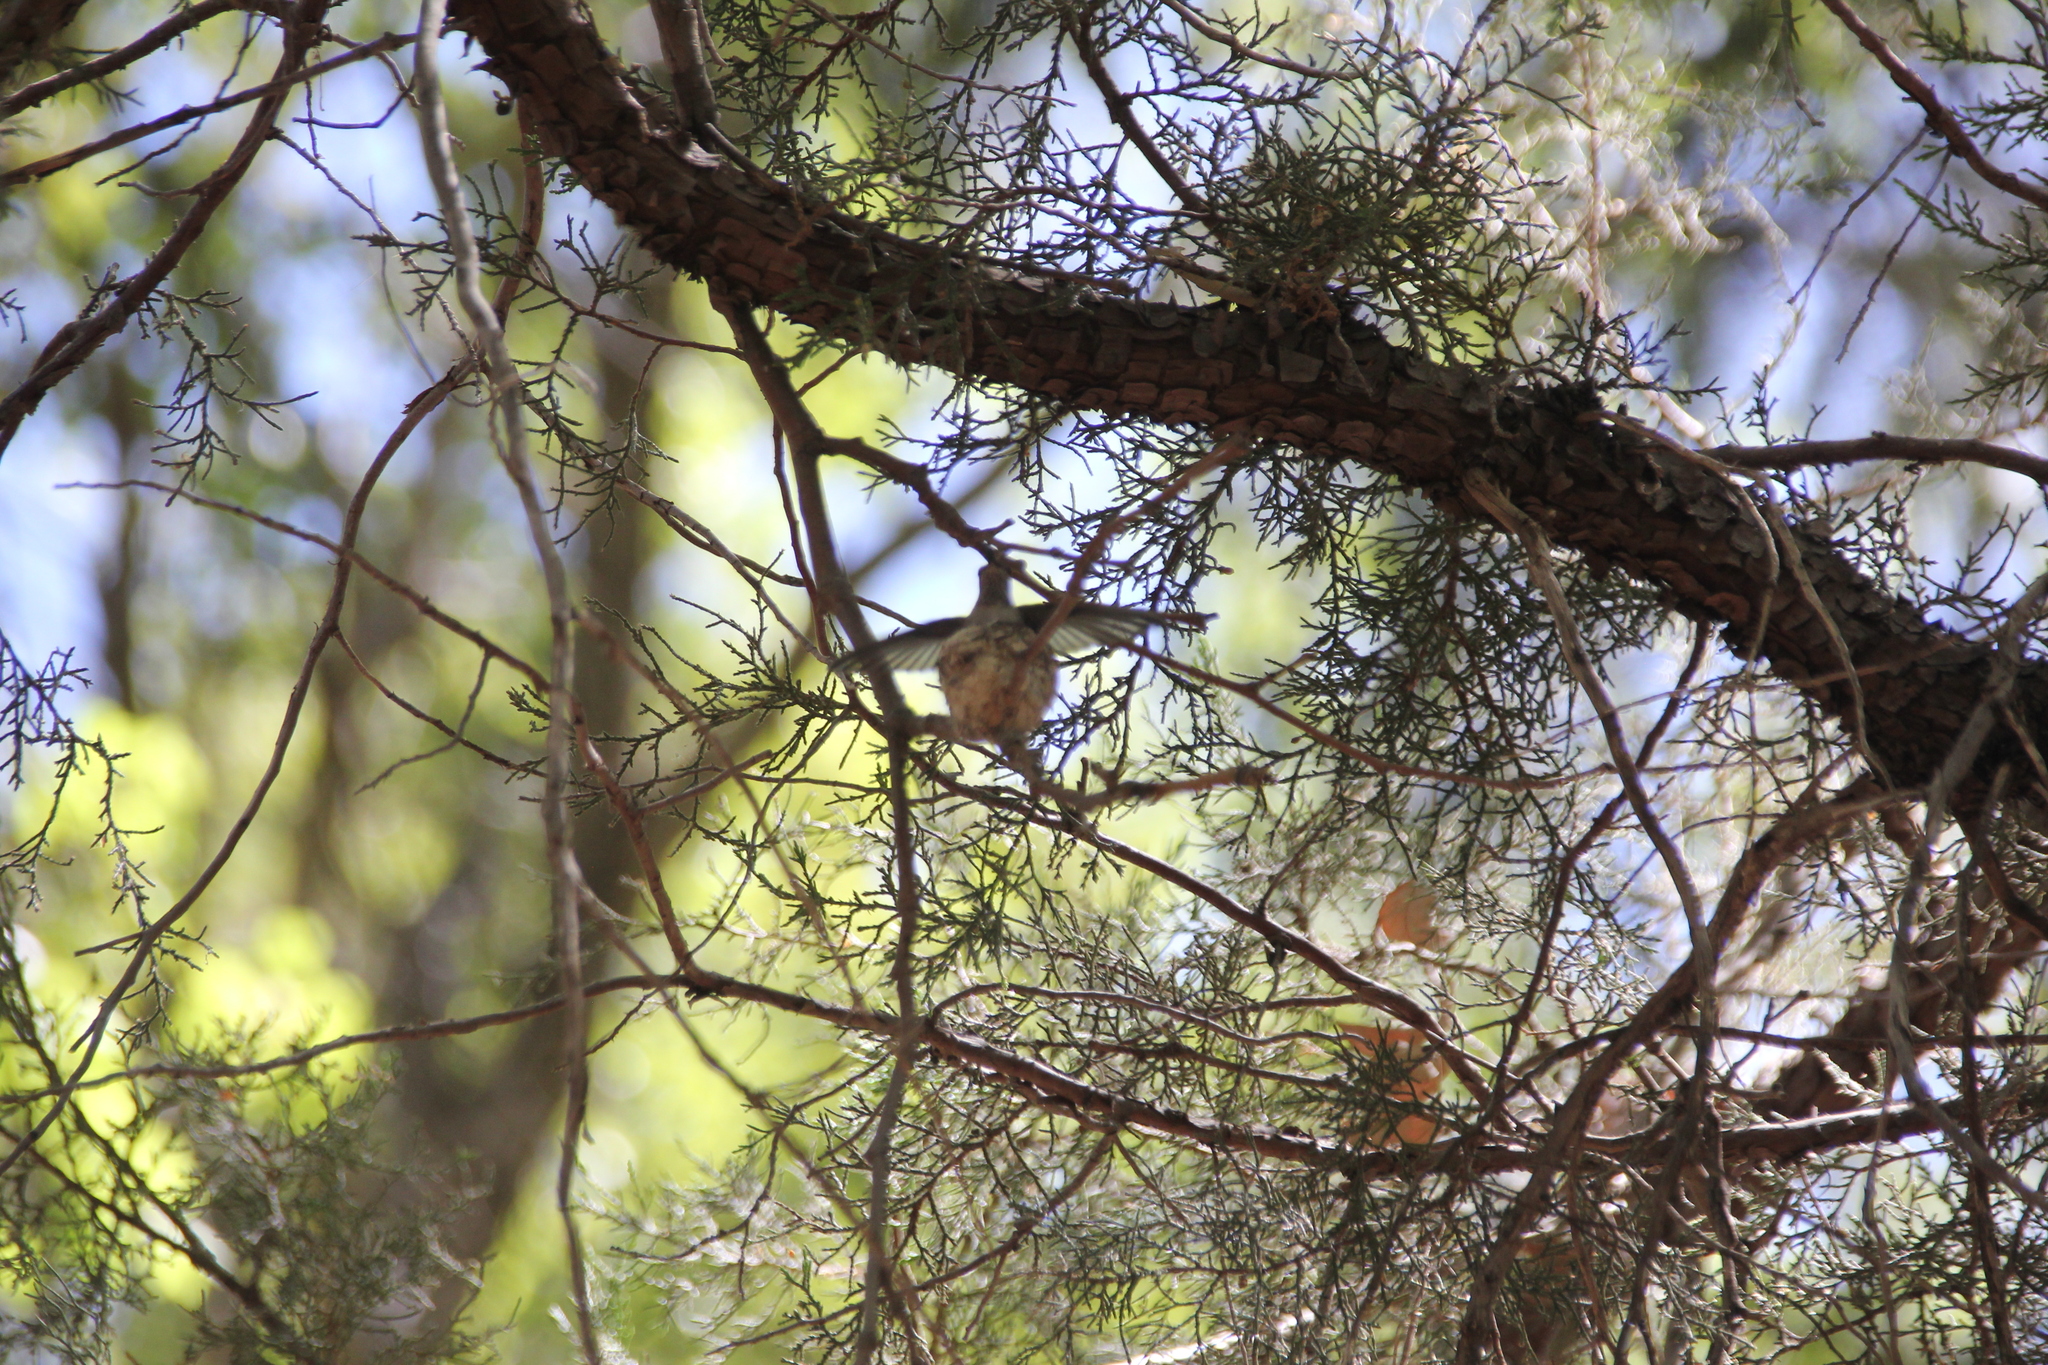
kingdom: Animalia
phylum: Chordata
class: Aves
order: Apodiformes
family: Trochilidae
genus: Archilochus
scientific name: Archilochus alexandri
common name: Black-chinned hummingbird
